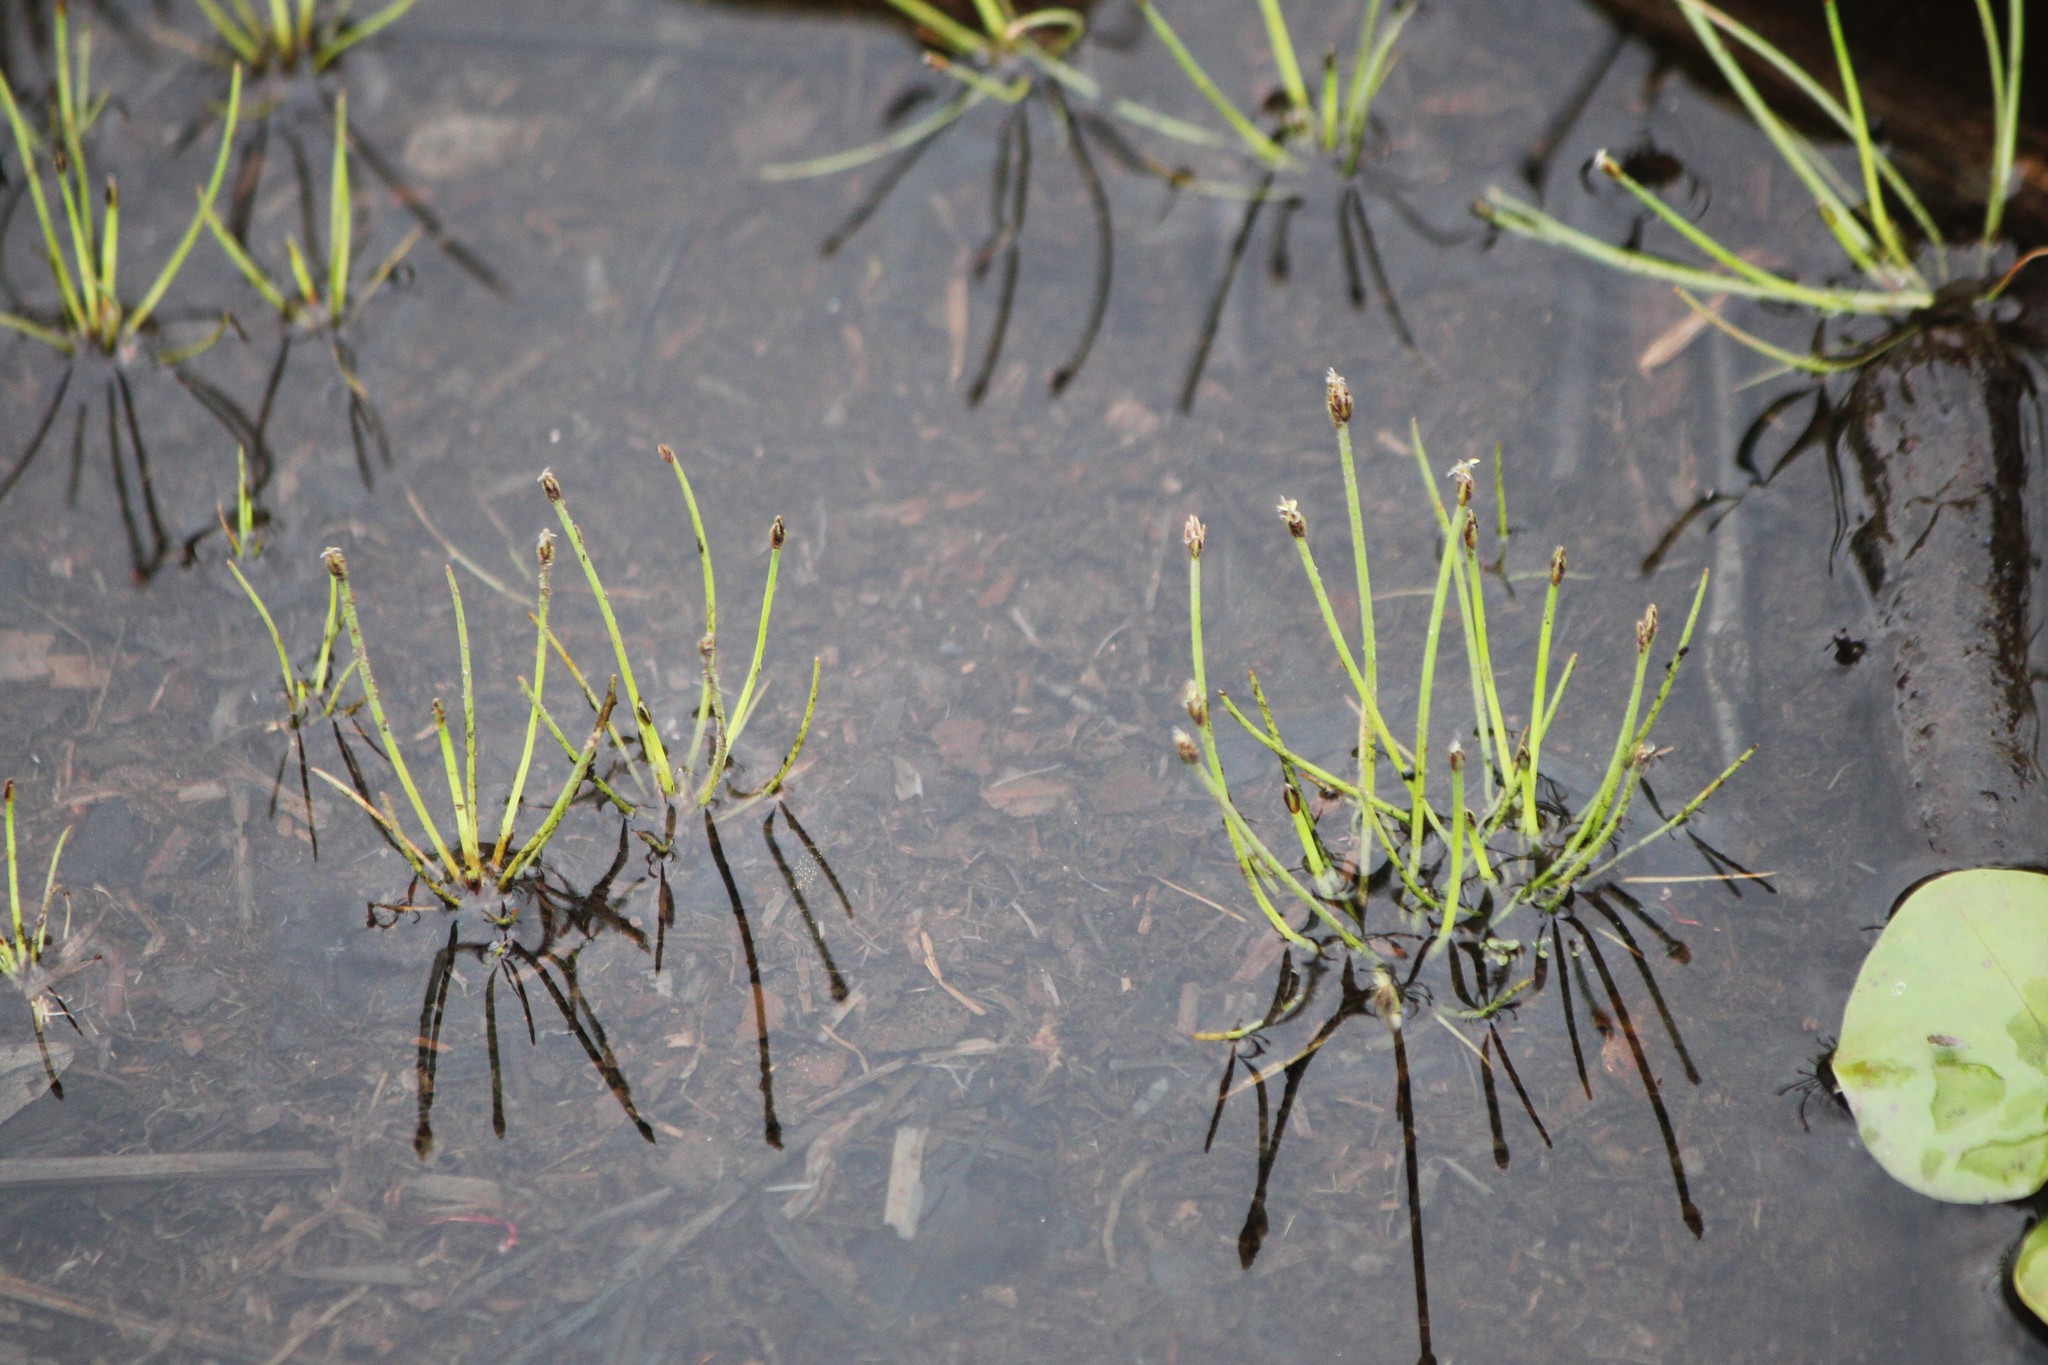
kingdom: Plantae
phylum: Tracheophyta
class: Liliopsida
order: Poales
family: Cyperaceae
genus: Eleocharis
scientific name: Eleocharis flavescens
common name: Yellow spikerush
